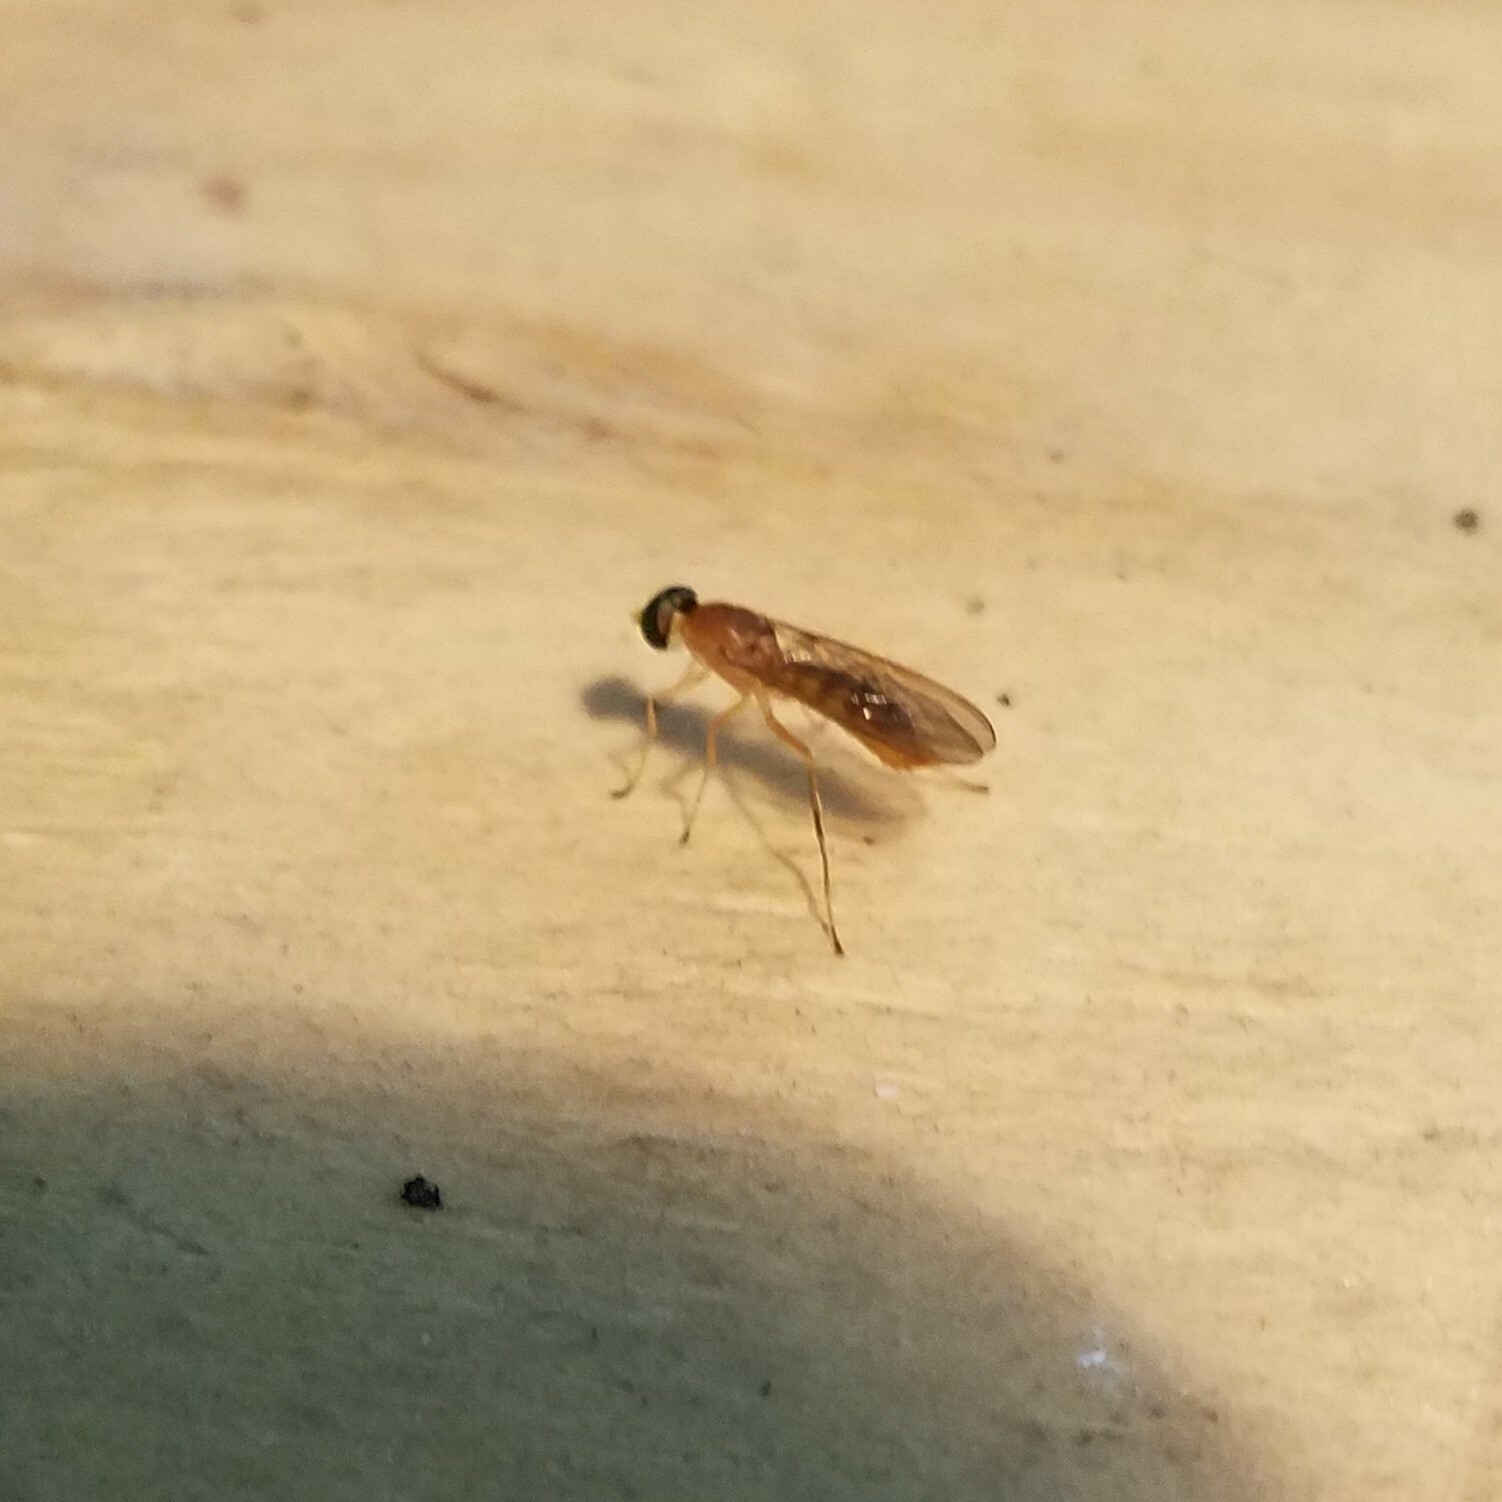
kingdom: Animalia
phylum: Arthropoda
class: Insecta
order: Diptera
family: Stratiomyidae
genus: Ptecticus
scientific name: Ptecticus trivittatus
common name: Compost fly
